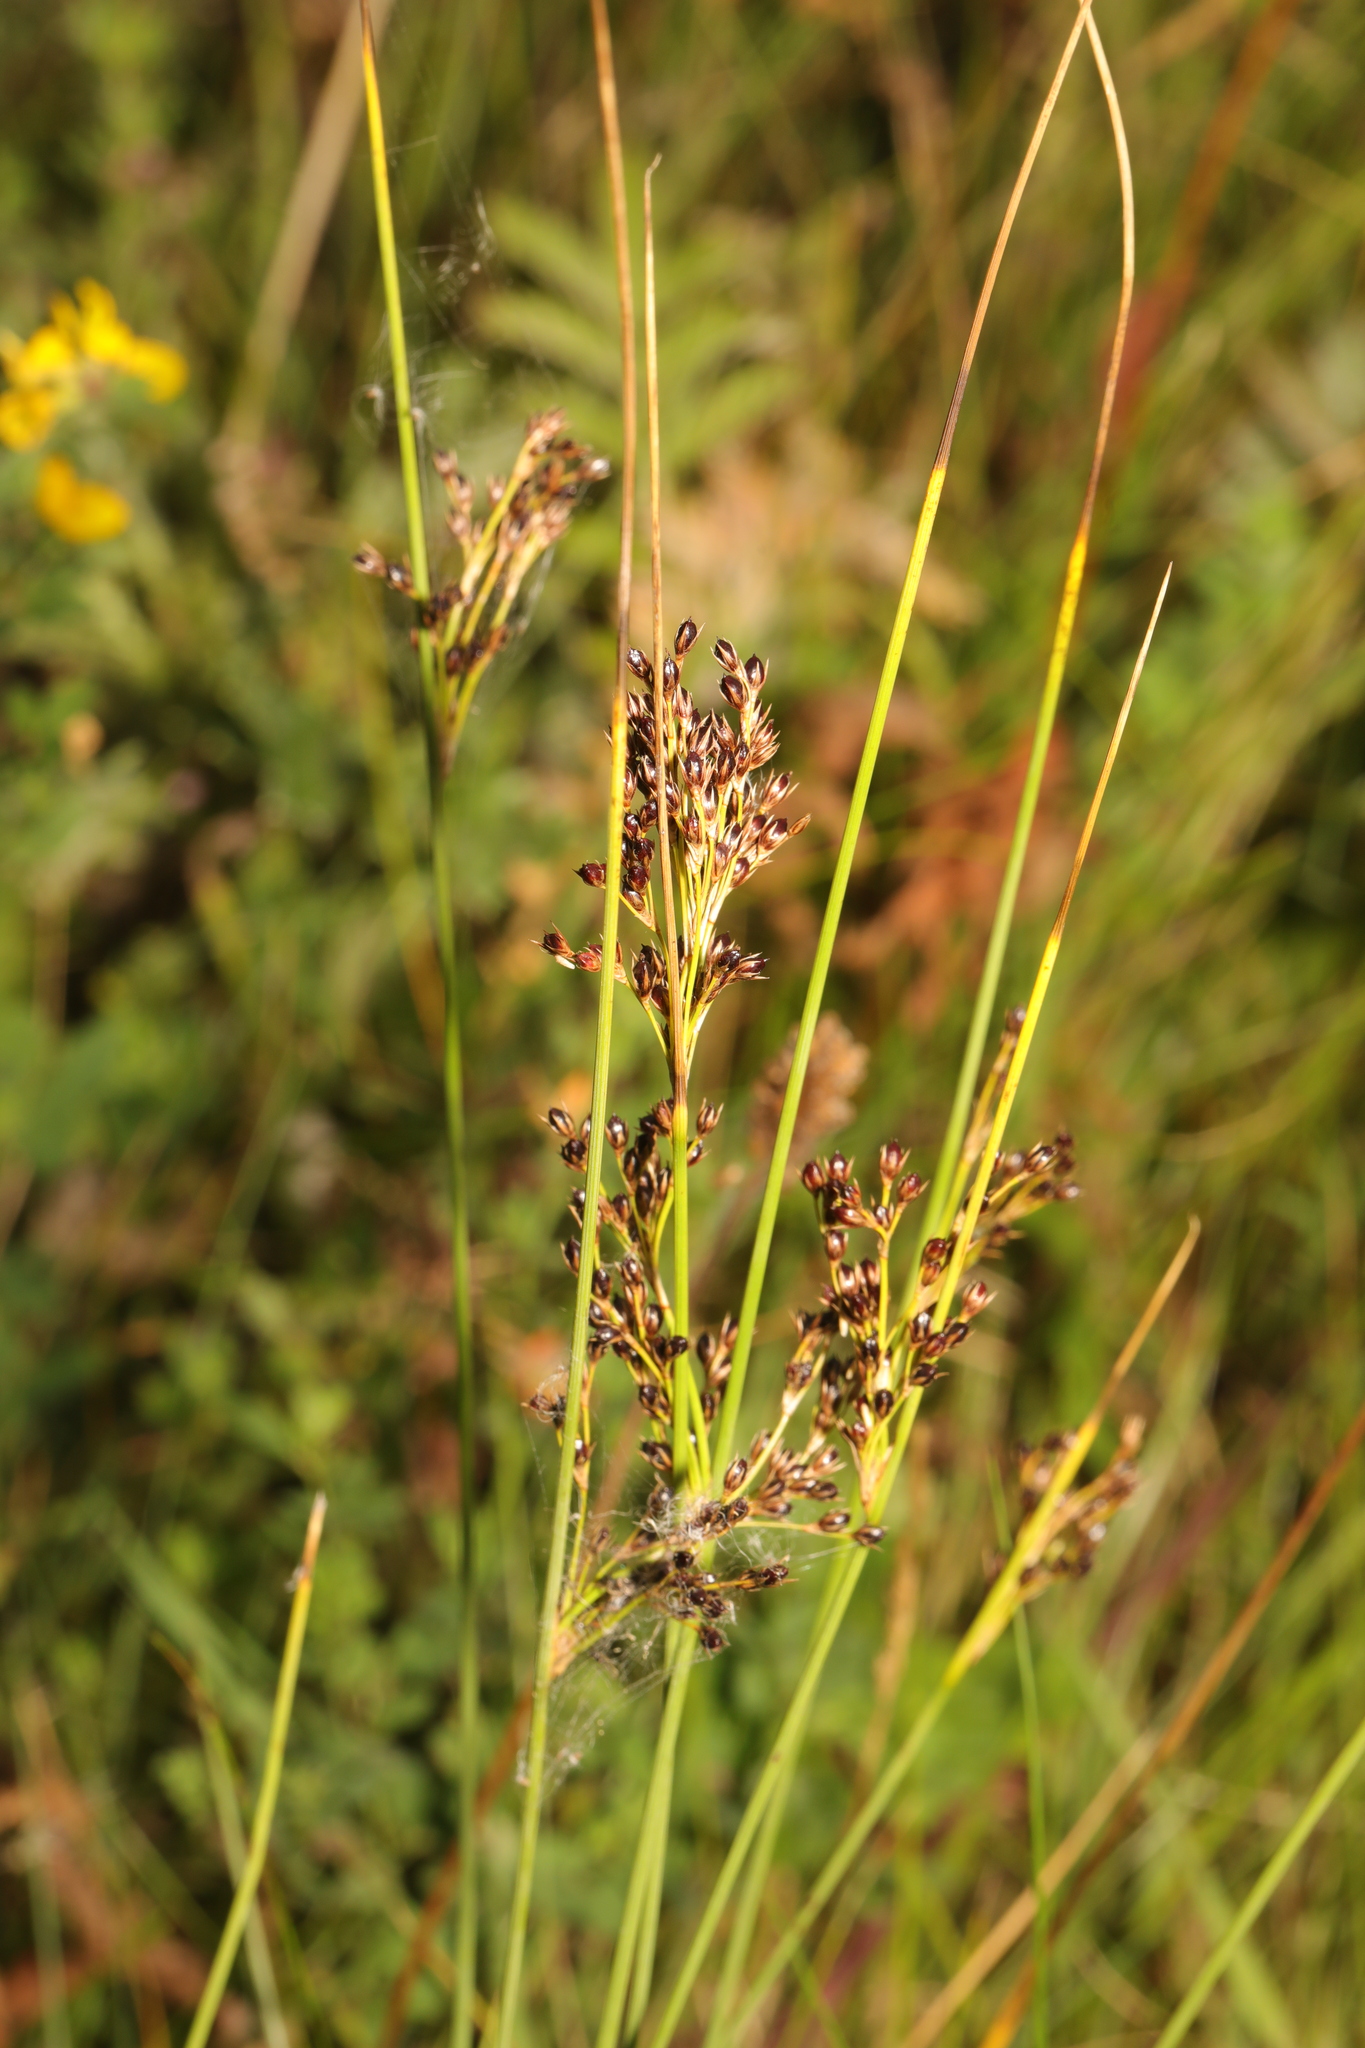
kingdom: Plantae
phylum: Tracheophyta
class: Liliopsida
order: Poales
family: Juncaceae
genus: Juncus
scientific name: Juncus inflexus
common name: Hard rush
